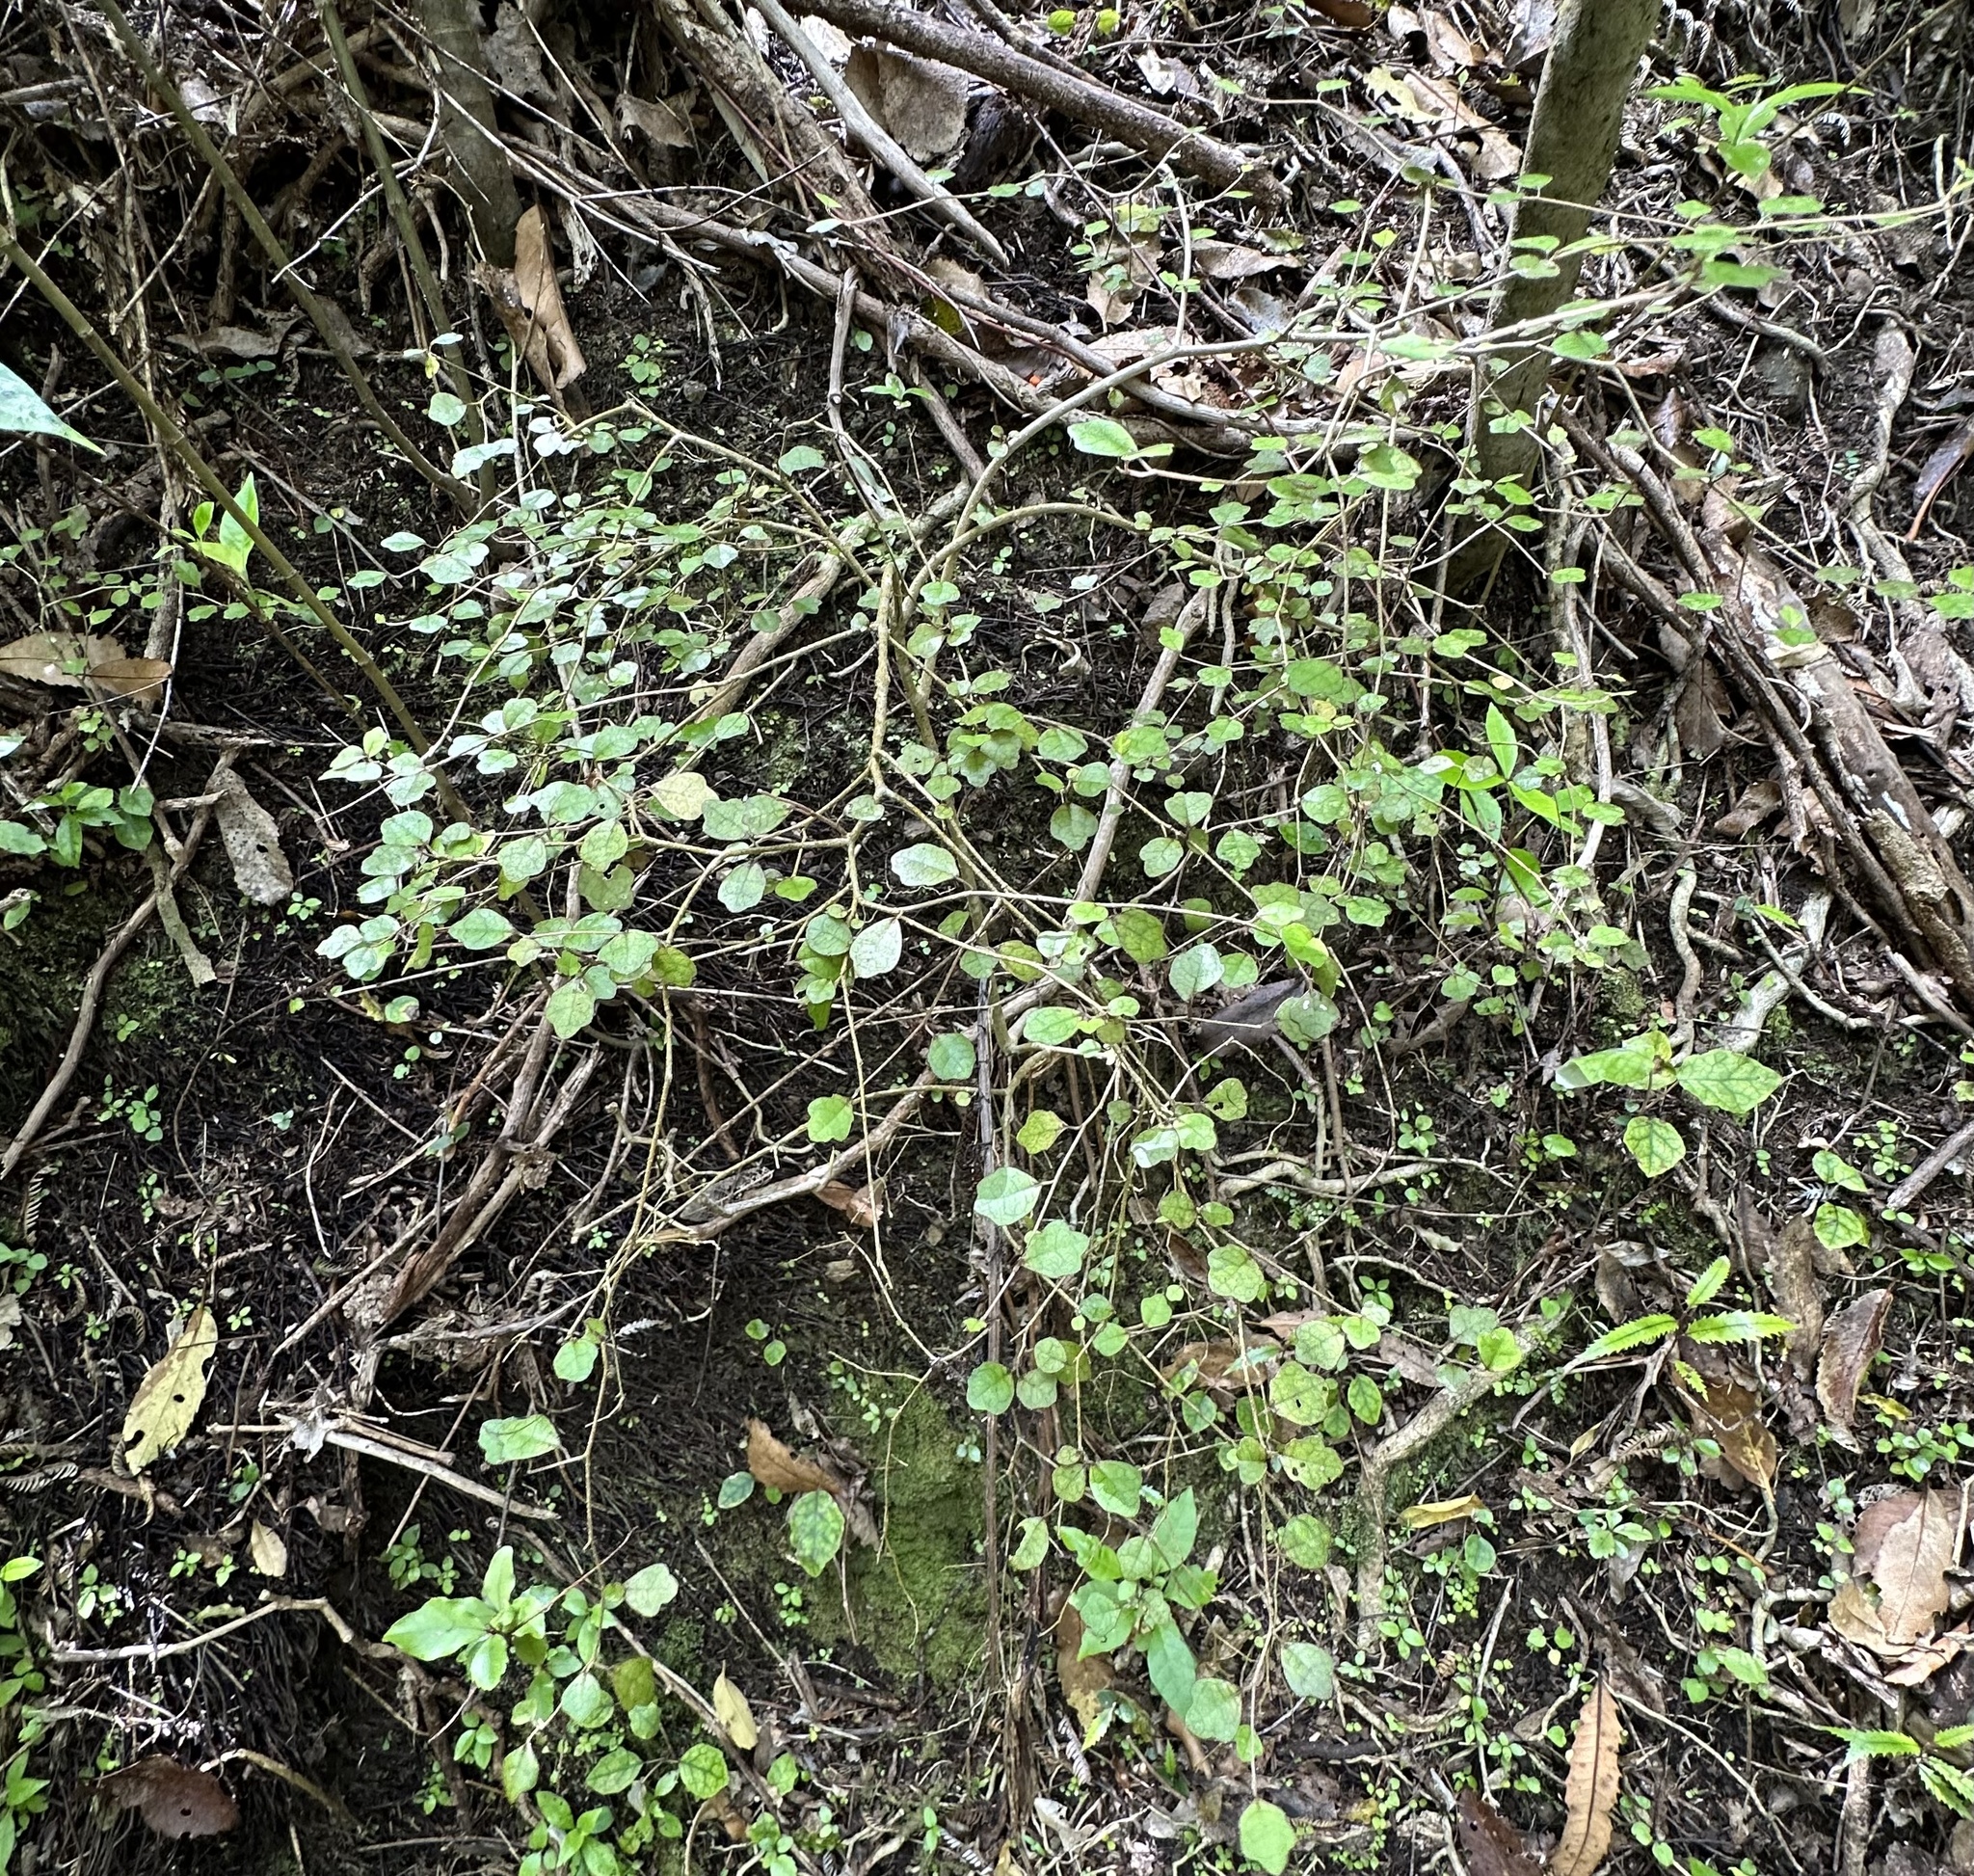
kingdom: Plantae
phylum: Tracheophyta
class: Magnoliopsida
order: Apiales
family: Pennantiaceae
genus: Pennantia
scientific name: Pennantia corymbosa
